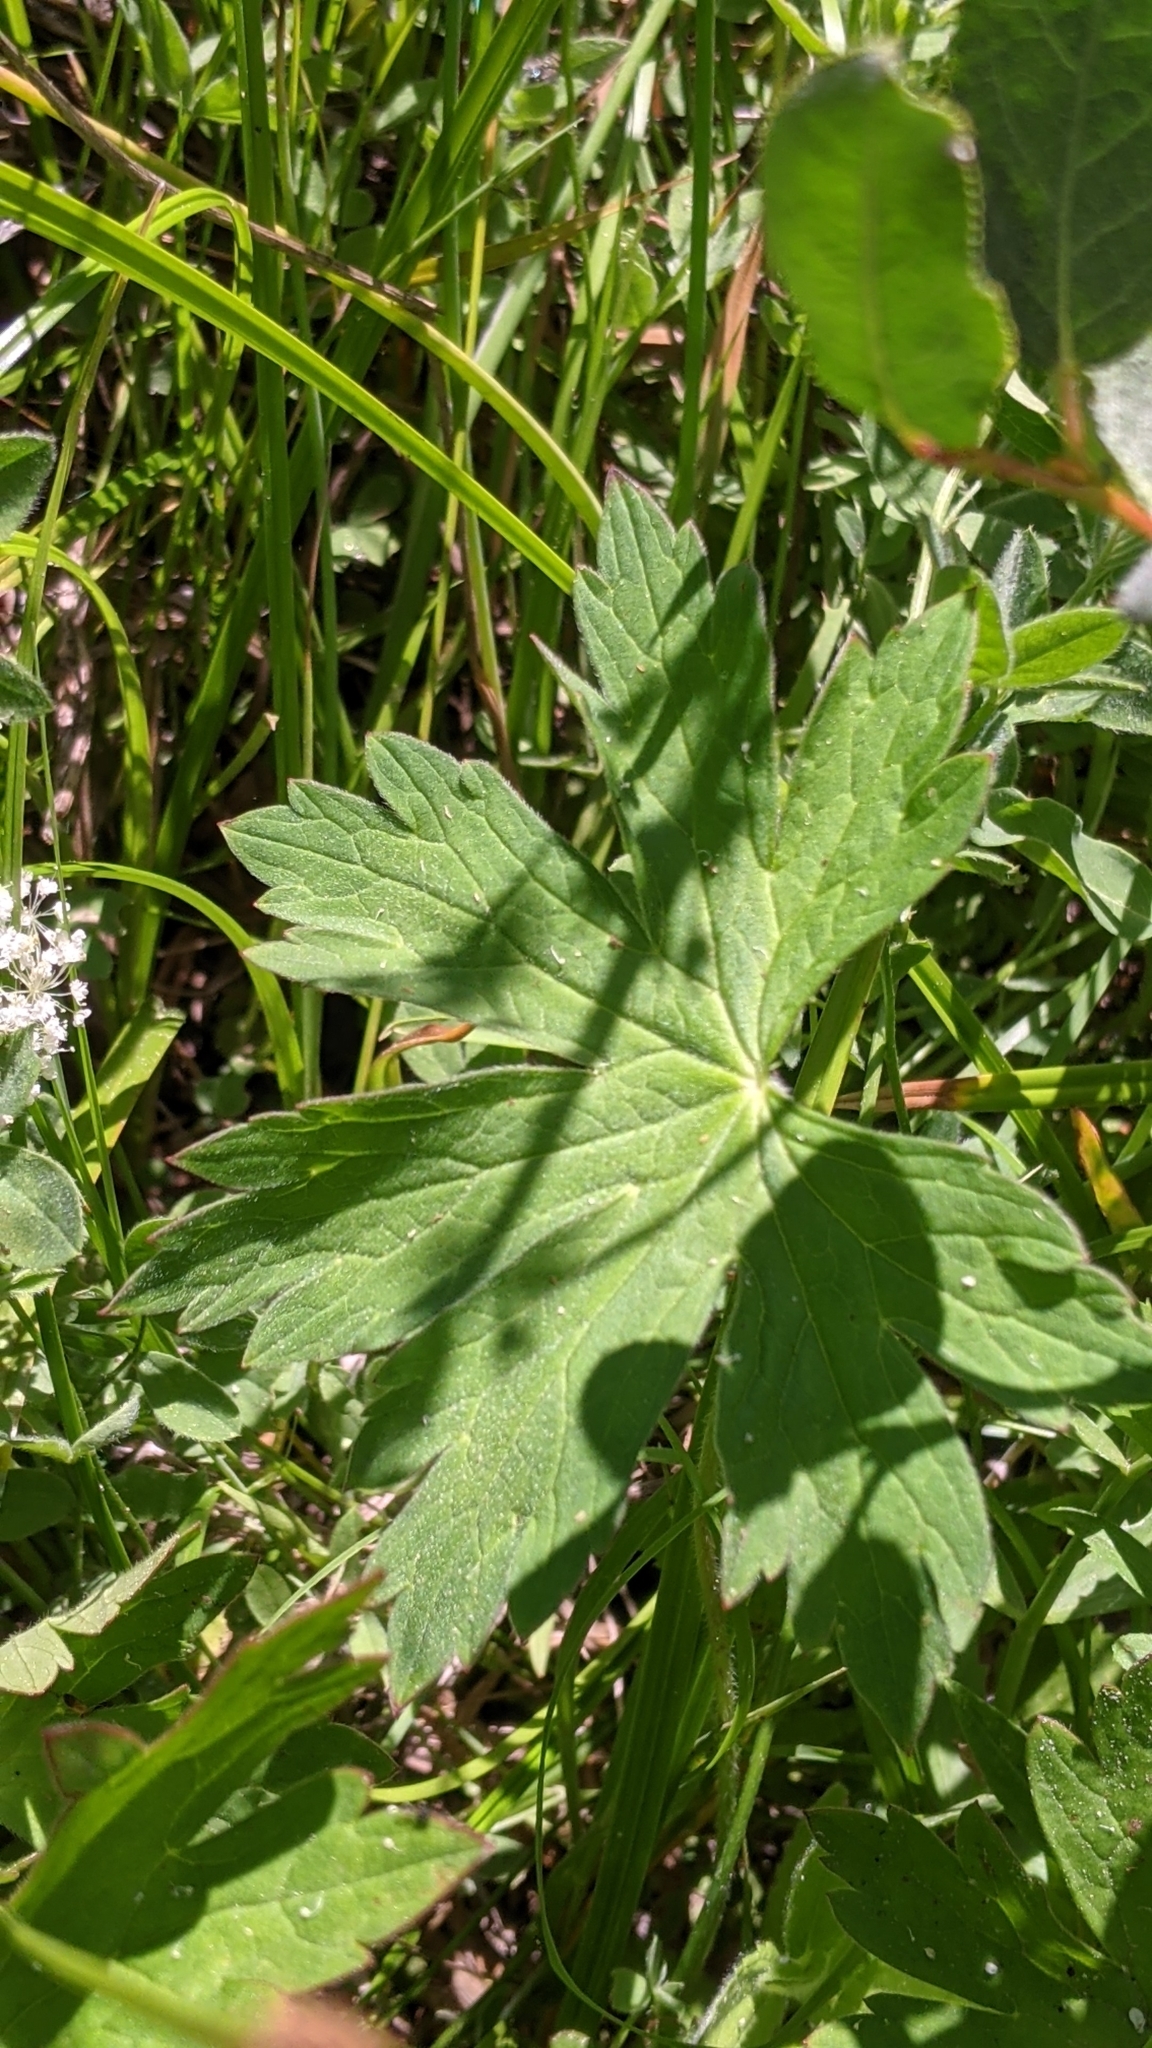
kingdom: Plantae
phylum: Tracheophyta
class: Magnoliopsida
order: Geraniales
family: Geraniaceae
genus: Geranium
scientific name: Geranium richardsonii
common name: Richardson's crane's-bill
